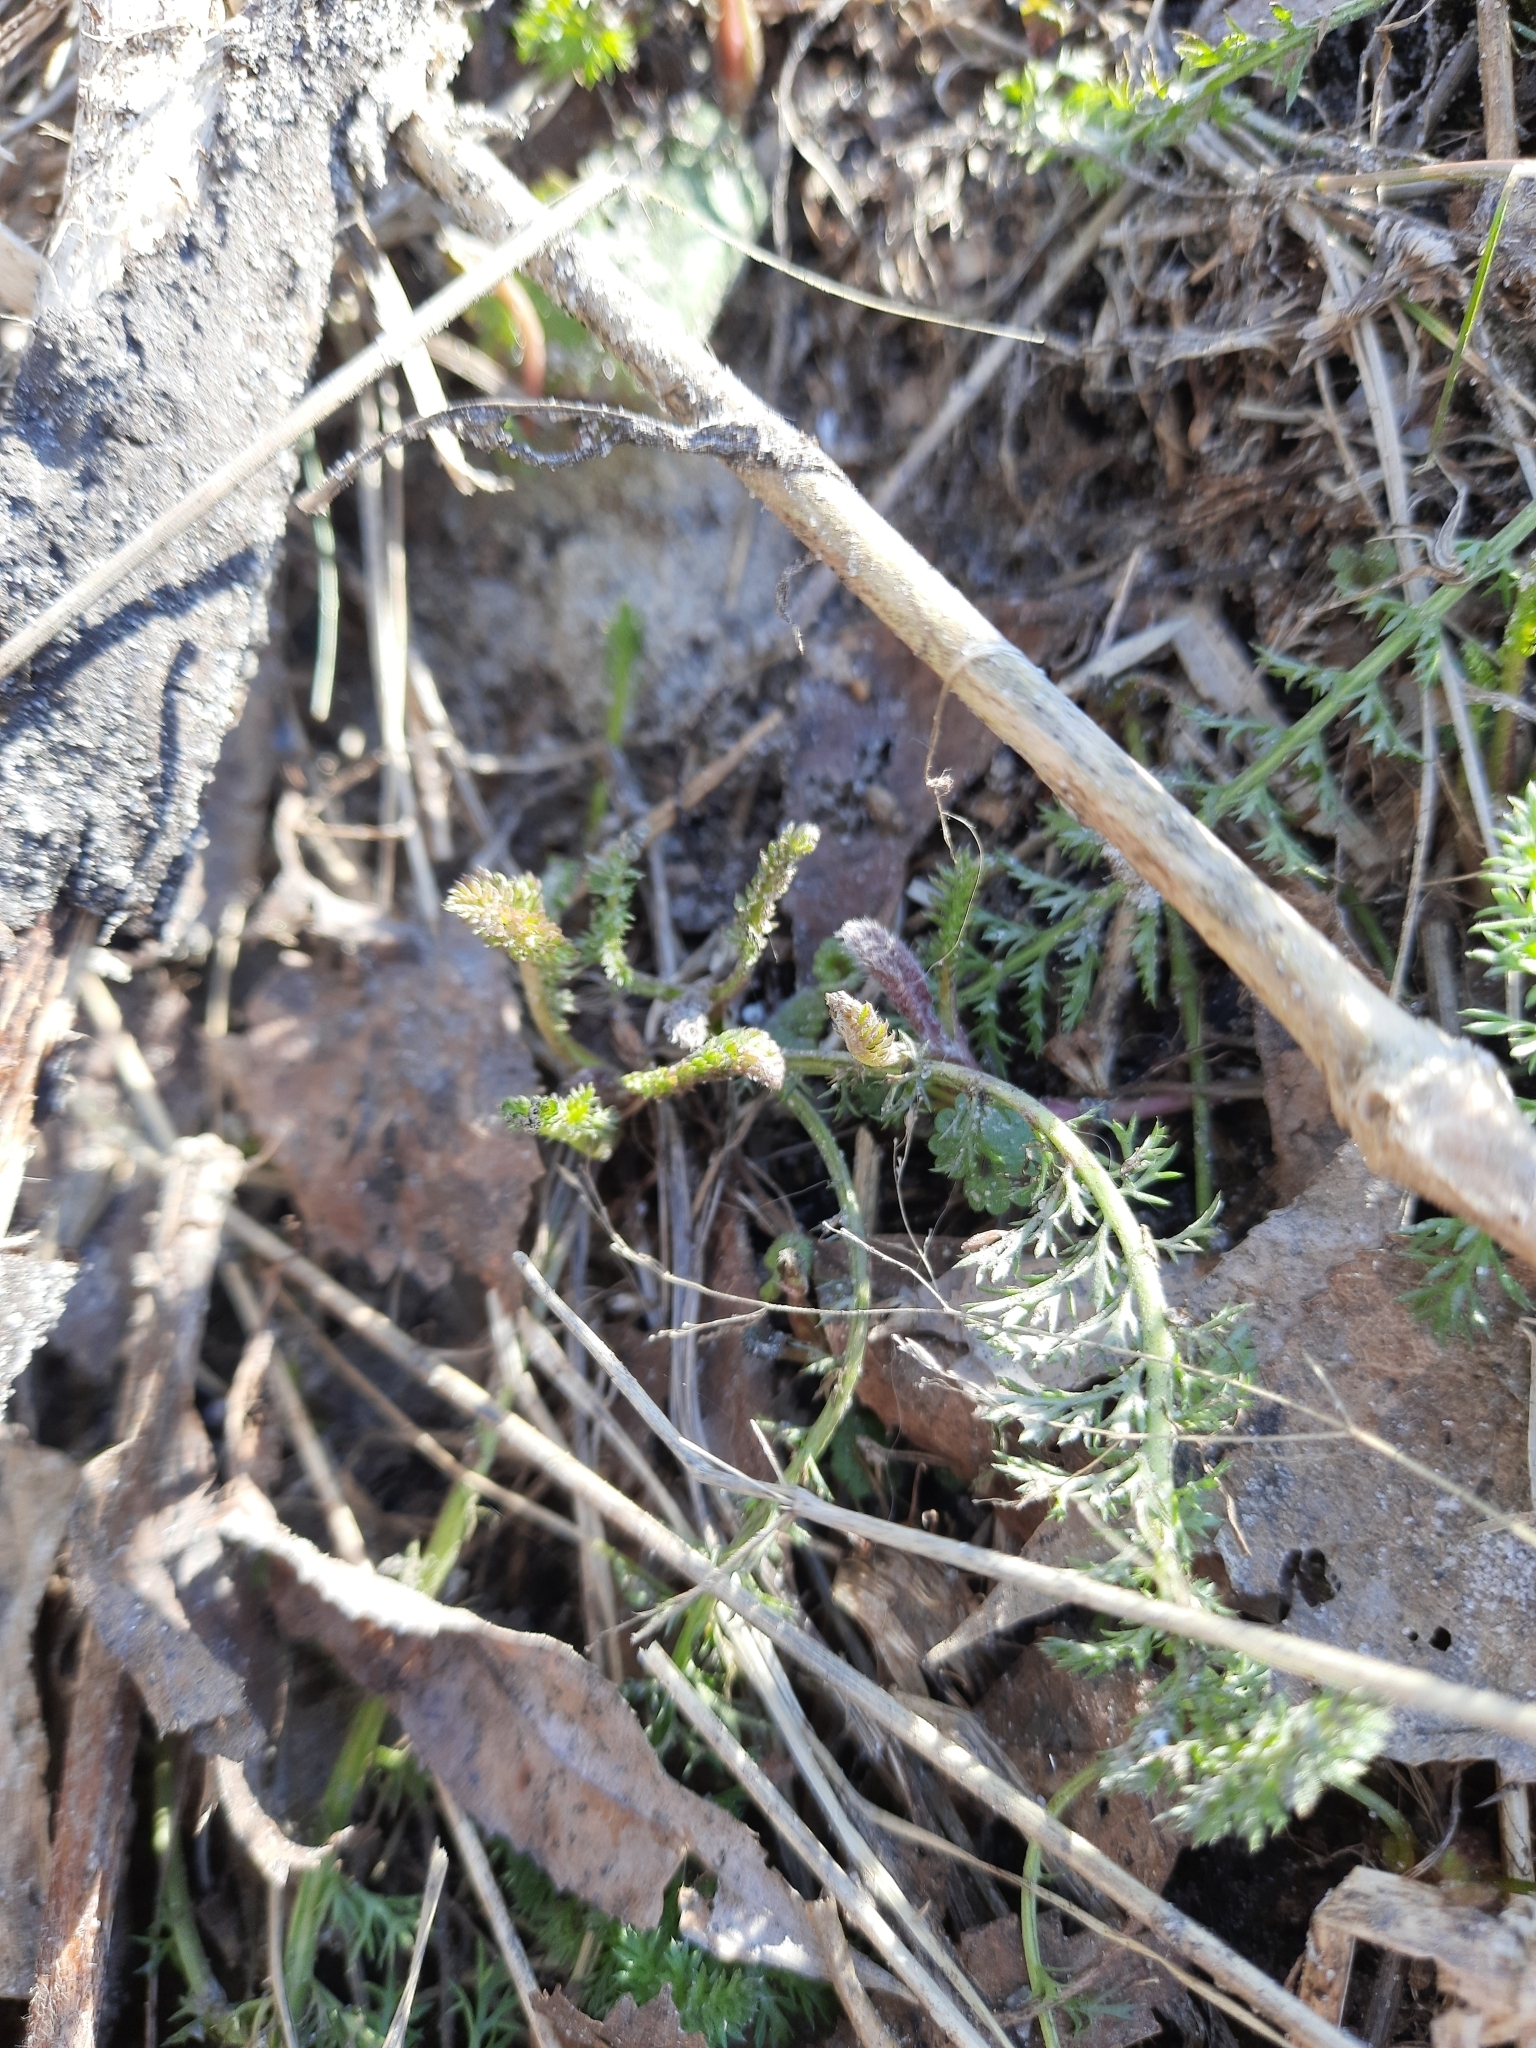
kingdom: Plantae
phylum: Tracheophyta
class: Magnoliopsida
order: Asterales
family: Asteraceae
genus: Achillea
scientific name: Achillea millefolium
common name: Yarrow
